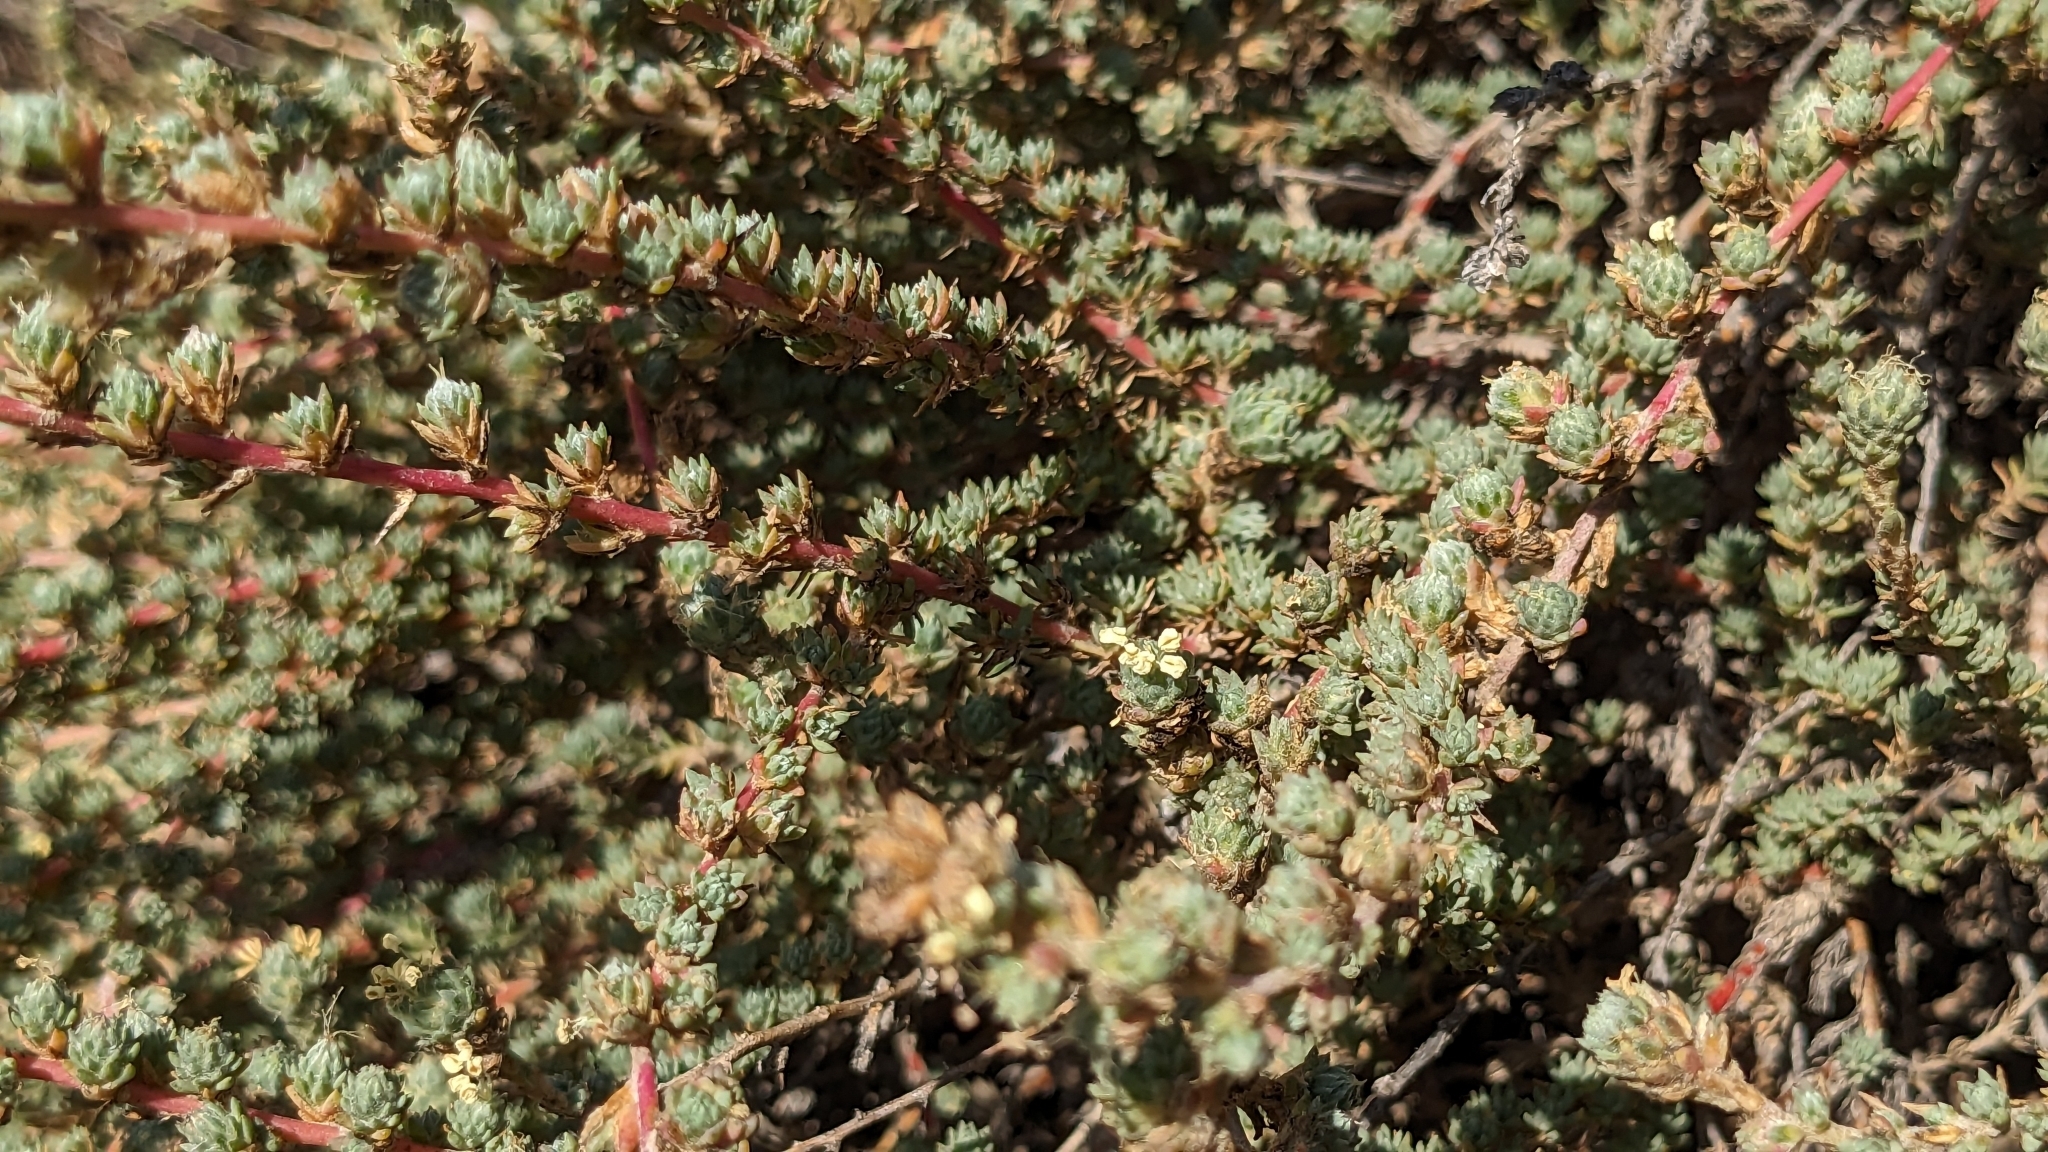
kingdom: Plantae
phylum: Tracheophyta
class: Magnoliopsida
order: Caryophyllales
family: Amaranthaceae
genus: Camphorosma
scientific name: Camphorosma monspeliaca
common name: Camphorfume
